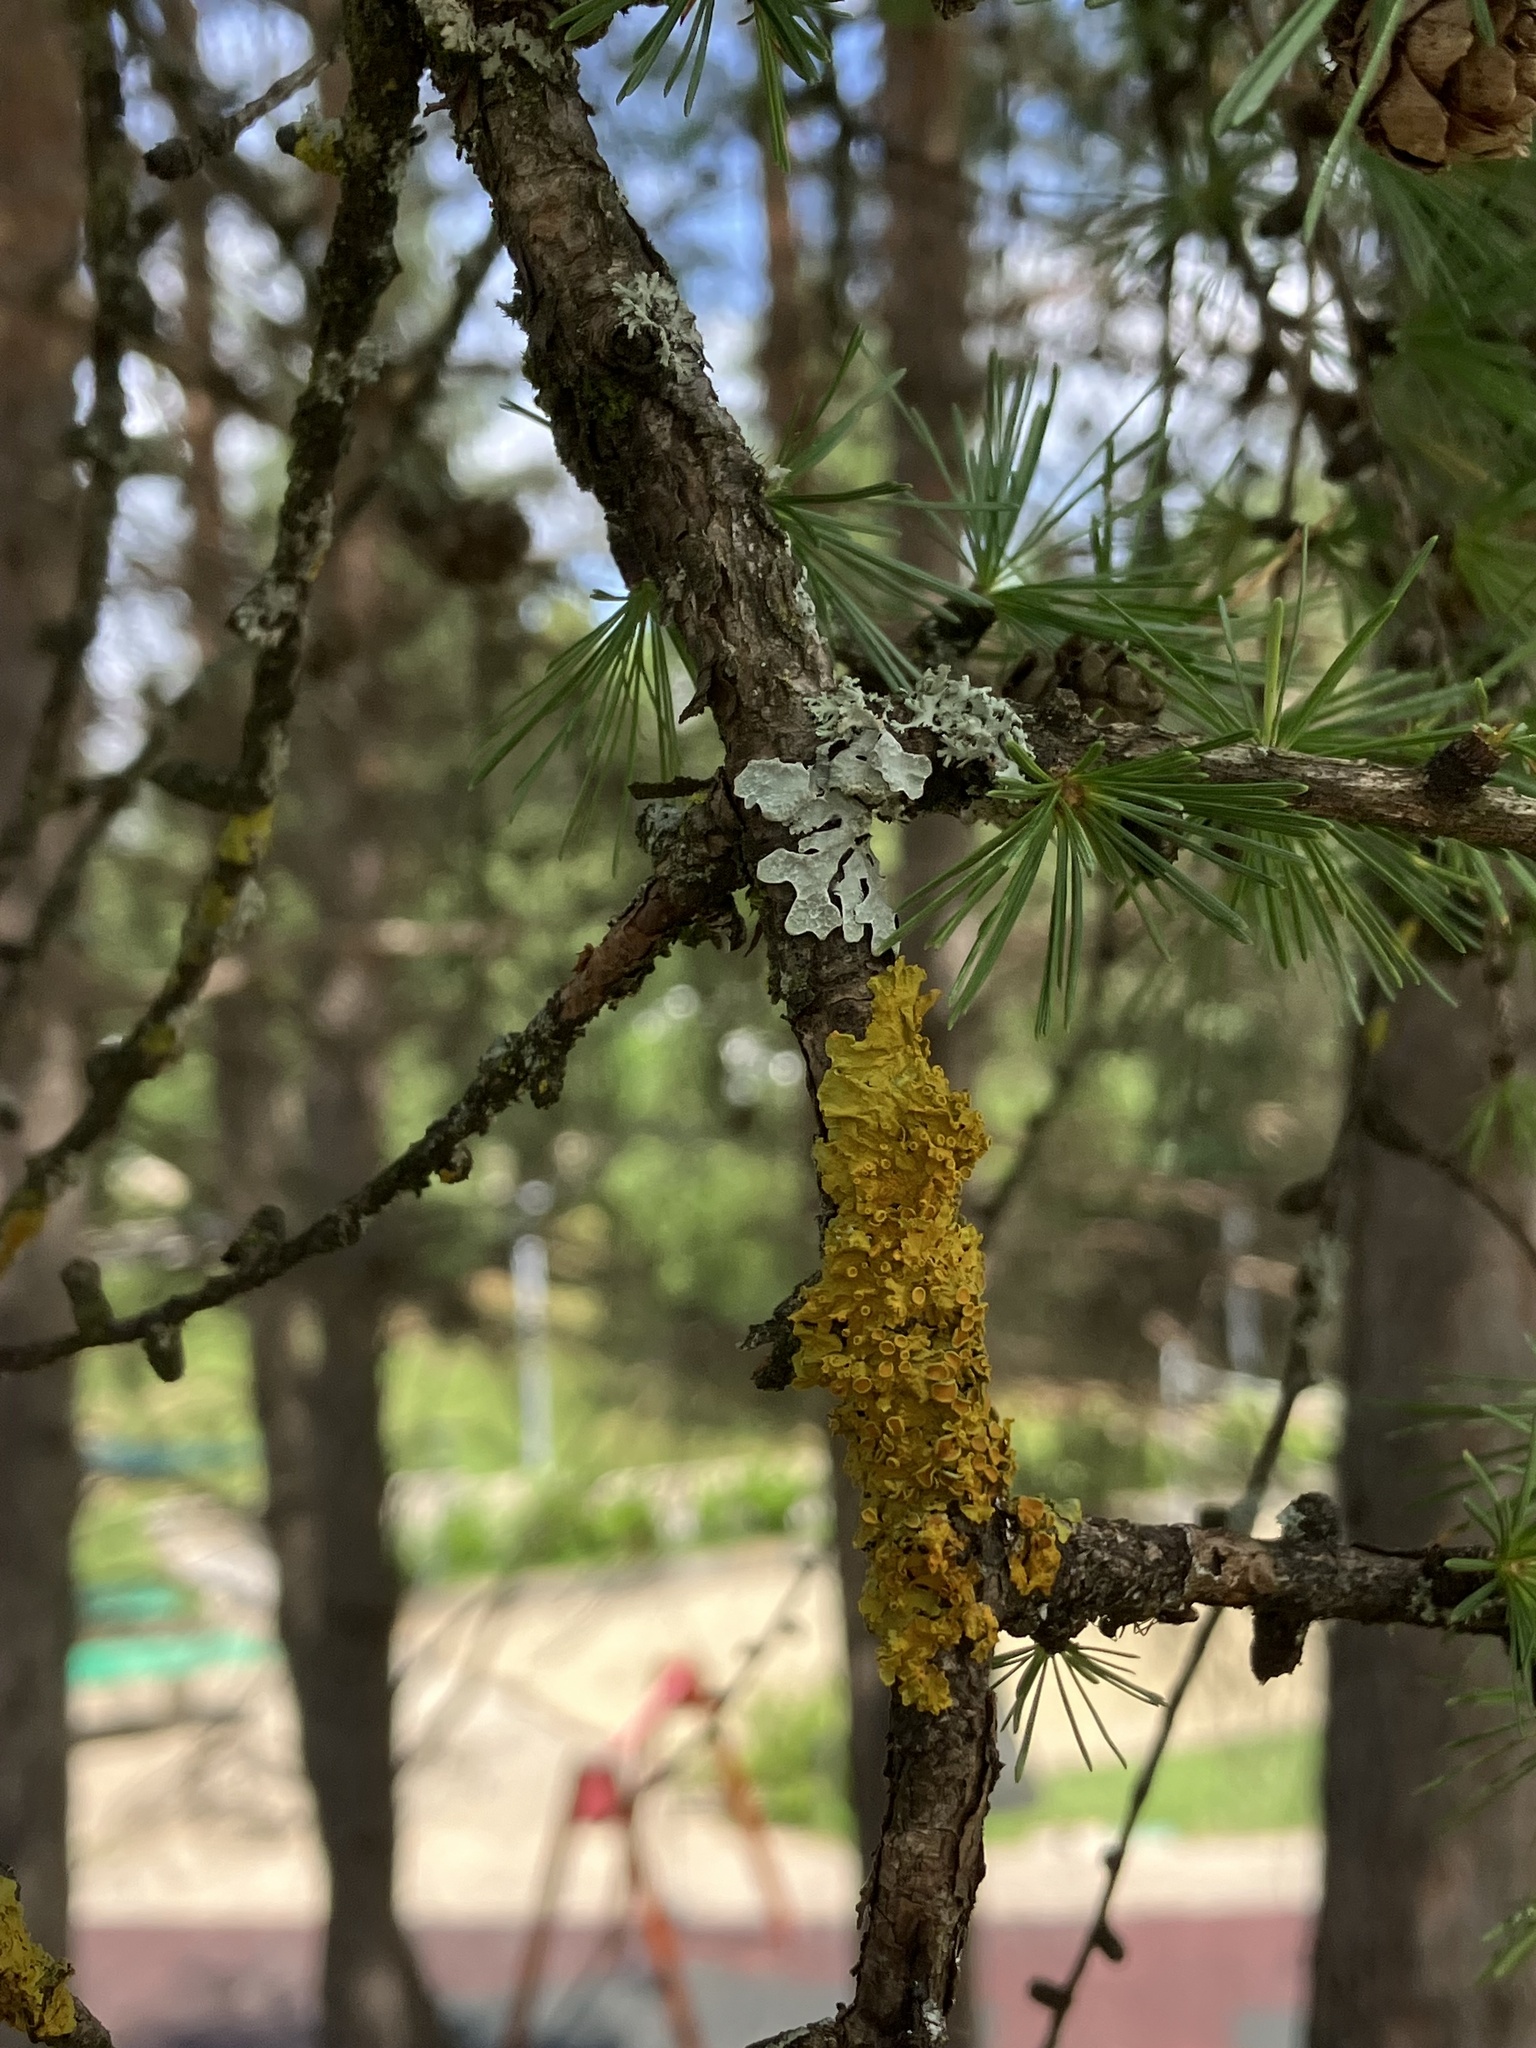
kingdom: Fungi
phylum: Ascomycota
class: Lecanoromycetes
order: Teloschistales
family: Teloschistaceae
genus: Xanthoria
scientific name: Xanthoria parietina
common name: Common orange lichen
